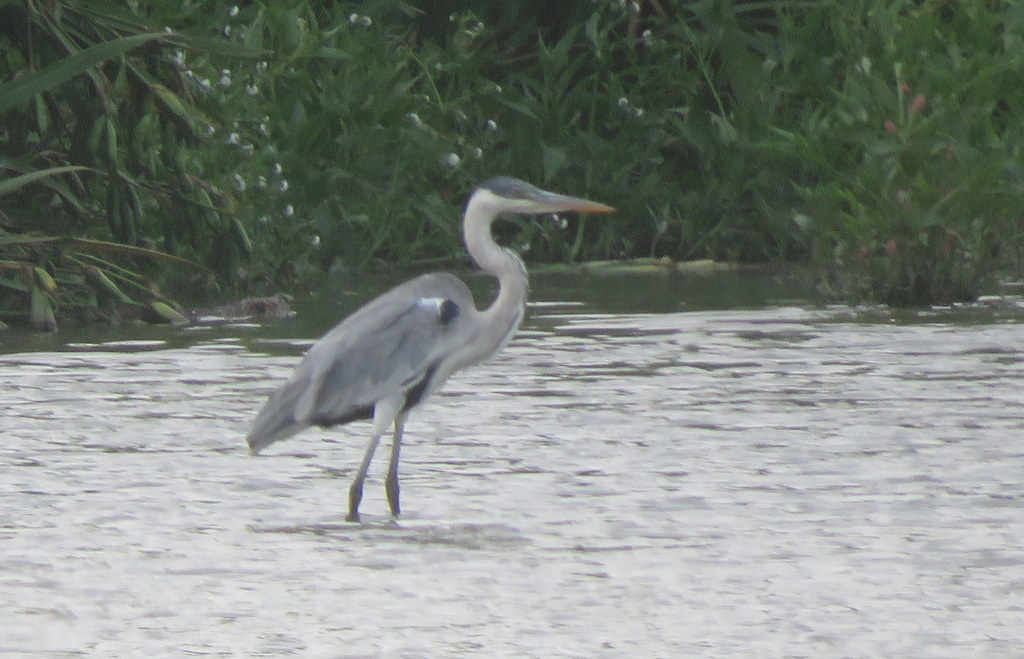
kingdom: Animalia
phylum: Chordata
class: Aves
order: Pelecaniformes
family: Ardeidae
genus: Ardea
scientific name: Ardea cocoi
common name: Cocoi heron
